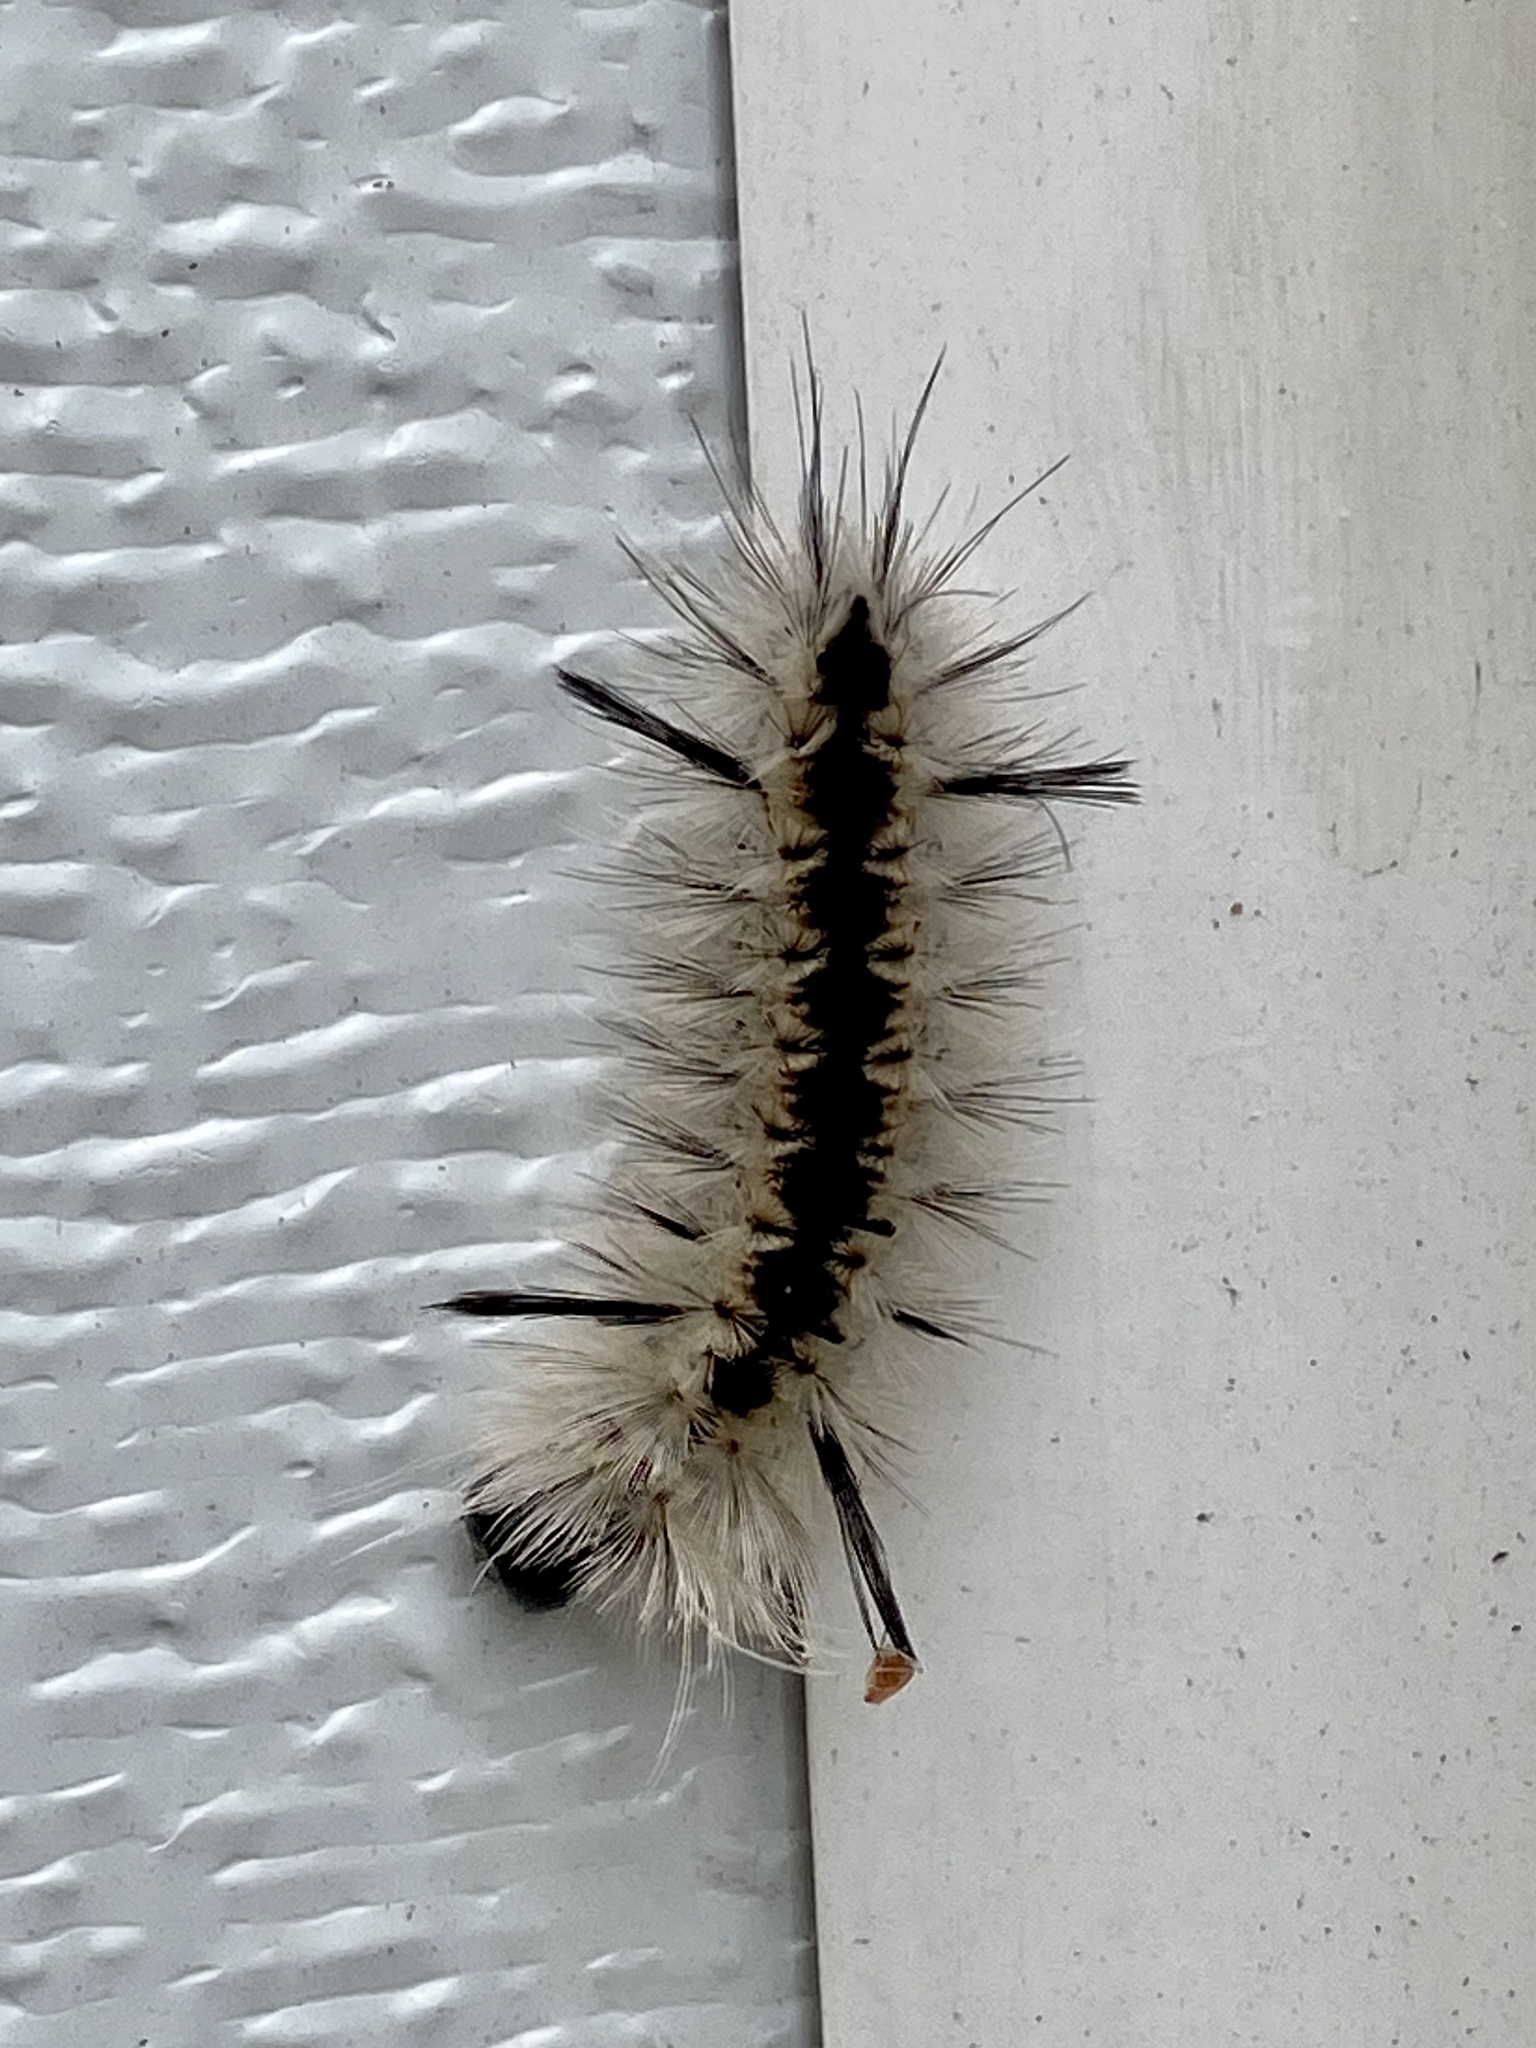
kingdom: Animalia
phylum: Arthropoda
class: Insecta
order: Lepidoptera
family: Erebidae
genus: Lophocampa
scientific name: Lophocampa caryae
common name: Hickory tussock moth
